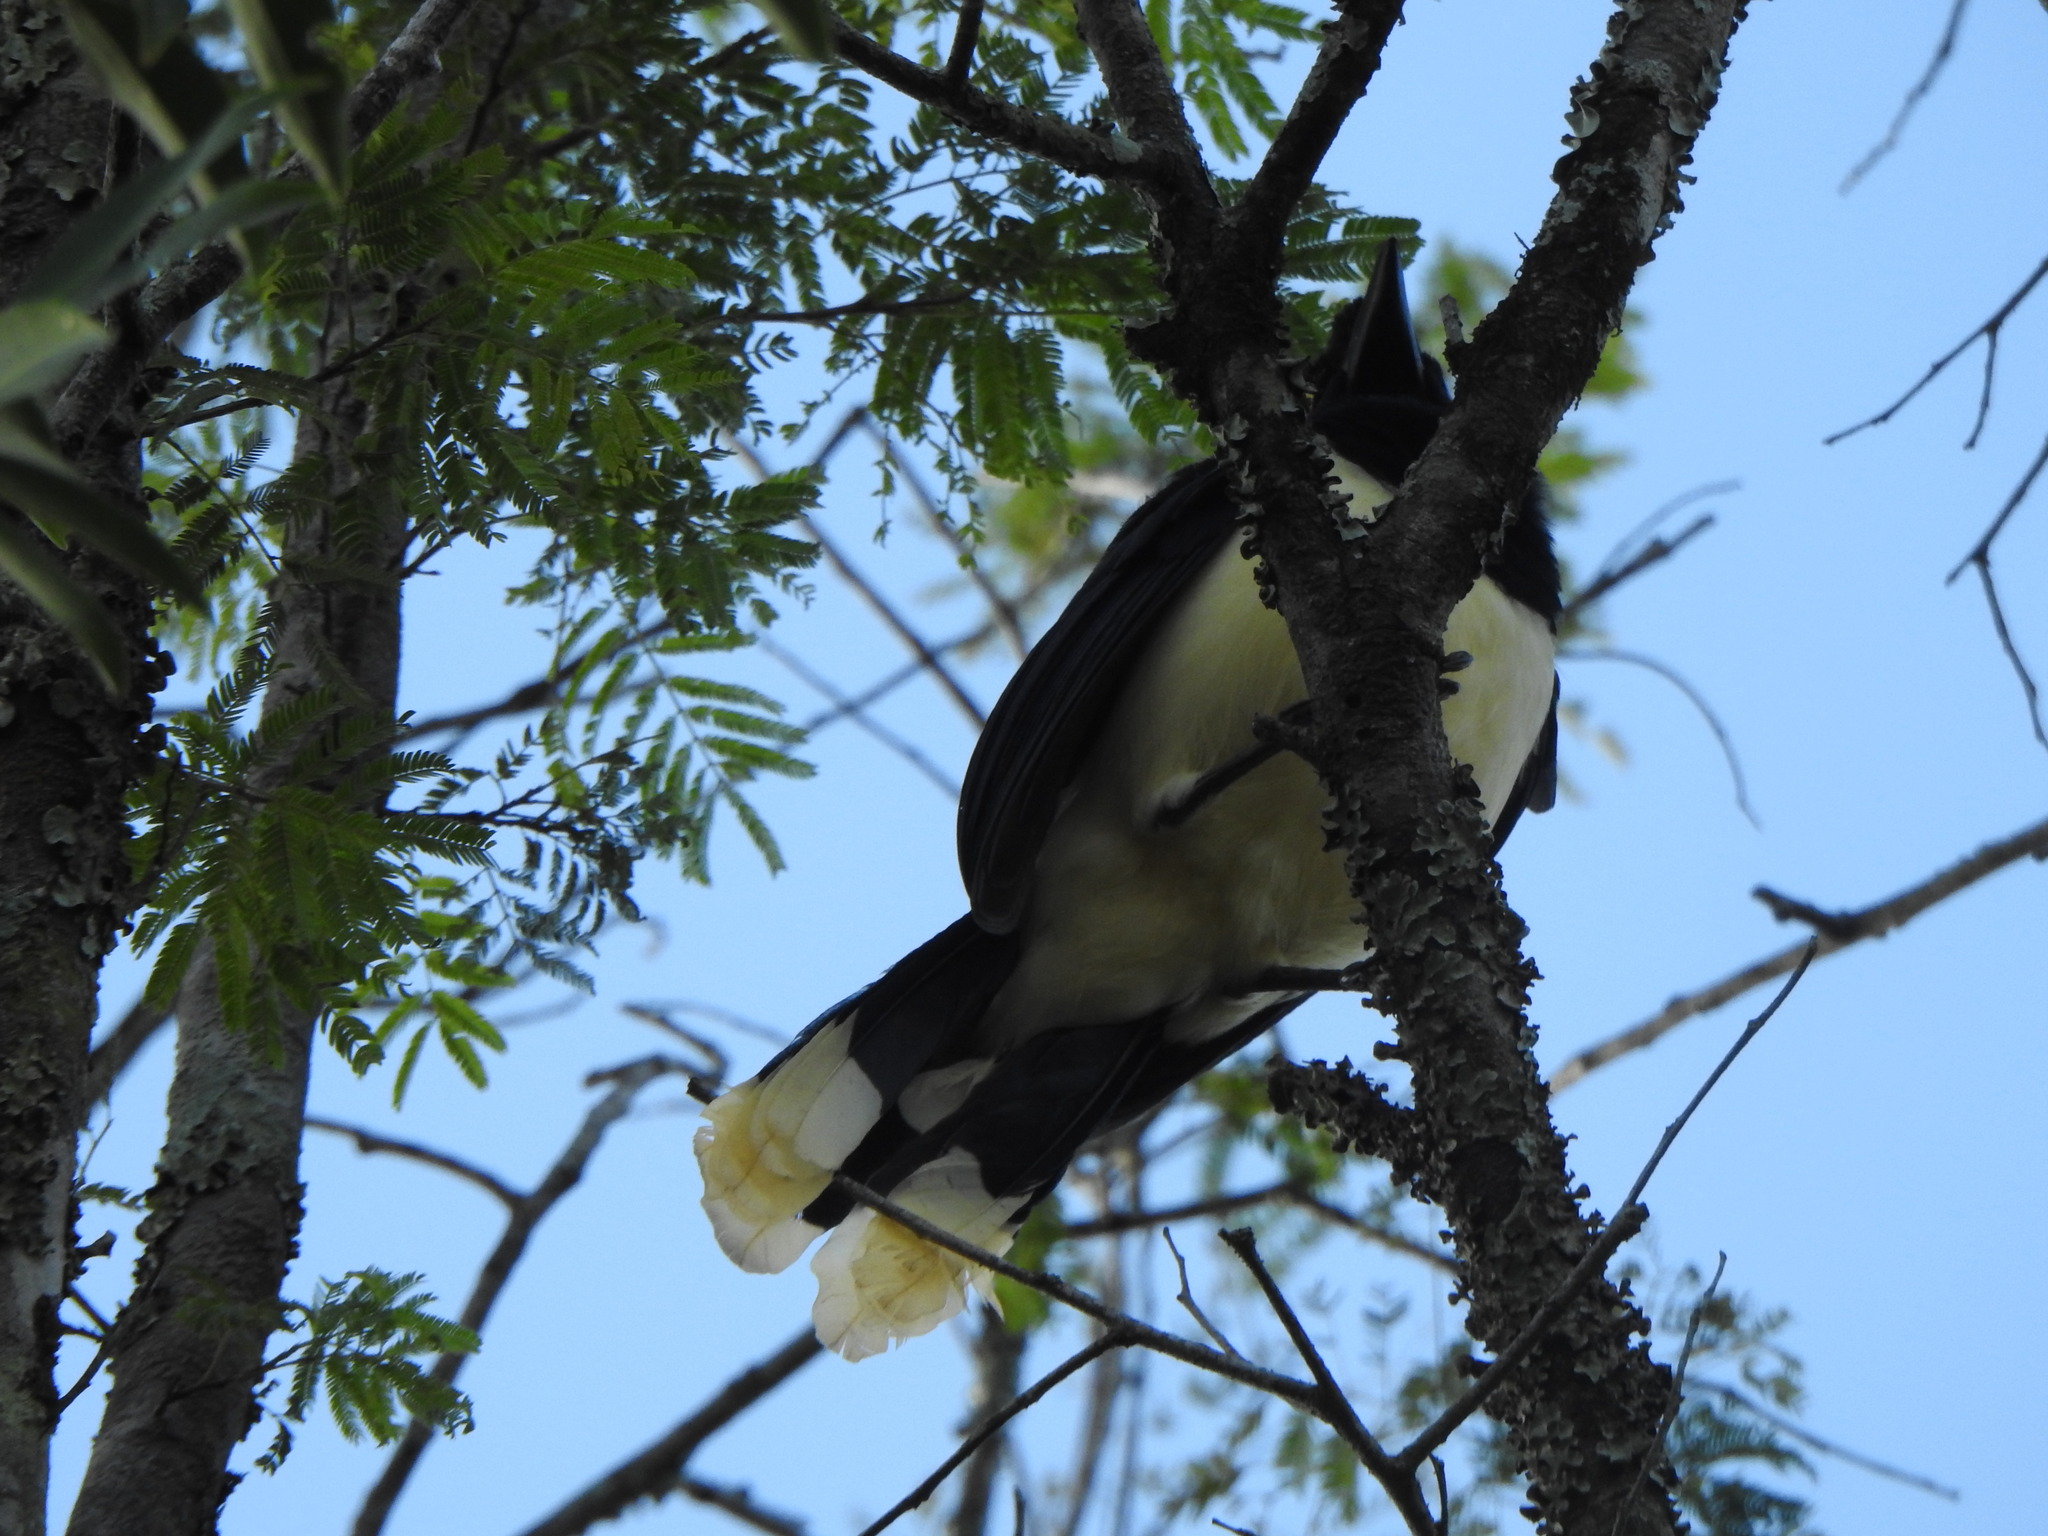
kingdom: Animalia
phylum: Chordata
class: Aves
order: Passeriformes
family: Corvidae
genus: Cyanocorax
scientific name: Cyanocorax chrysops
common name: Plush-crested jay
